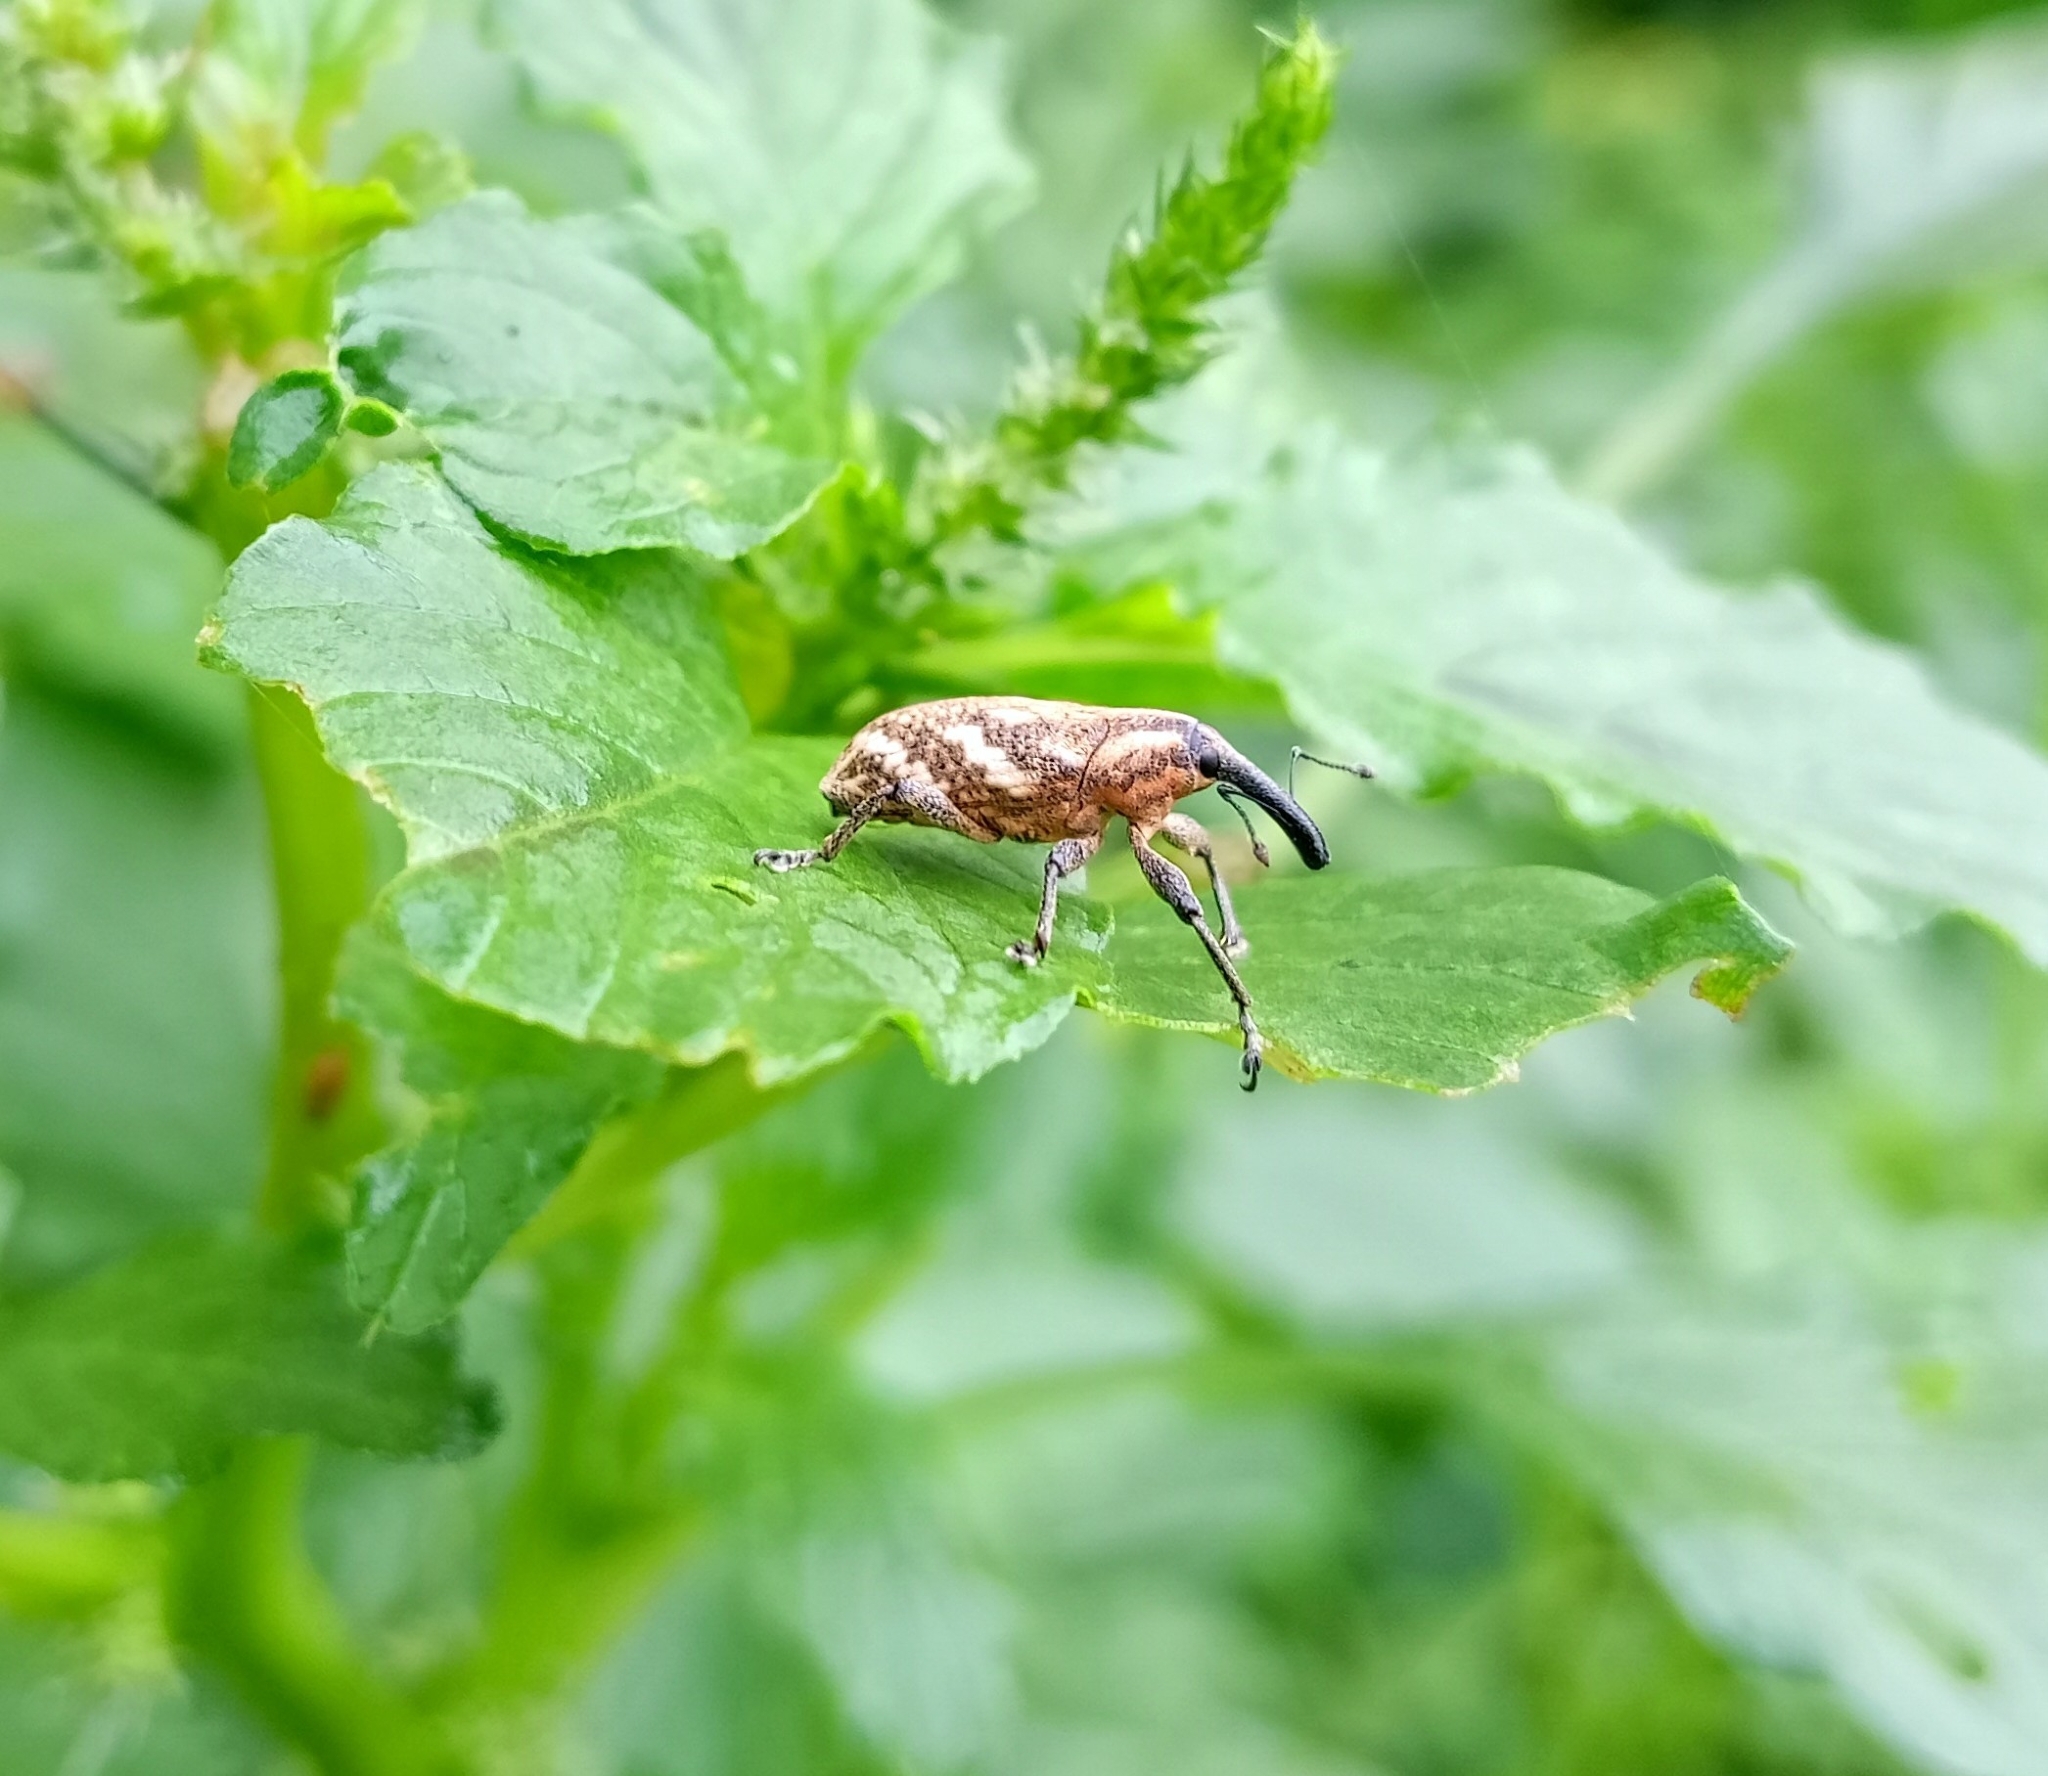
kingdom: Animalia
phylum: Arthropoda
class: Insecta
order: Coleoptera
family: Curculionidae
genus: Merus
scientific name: Merus
